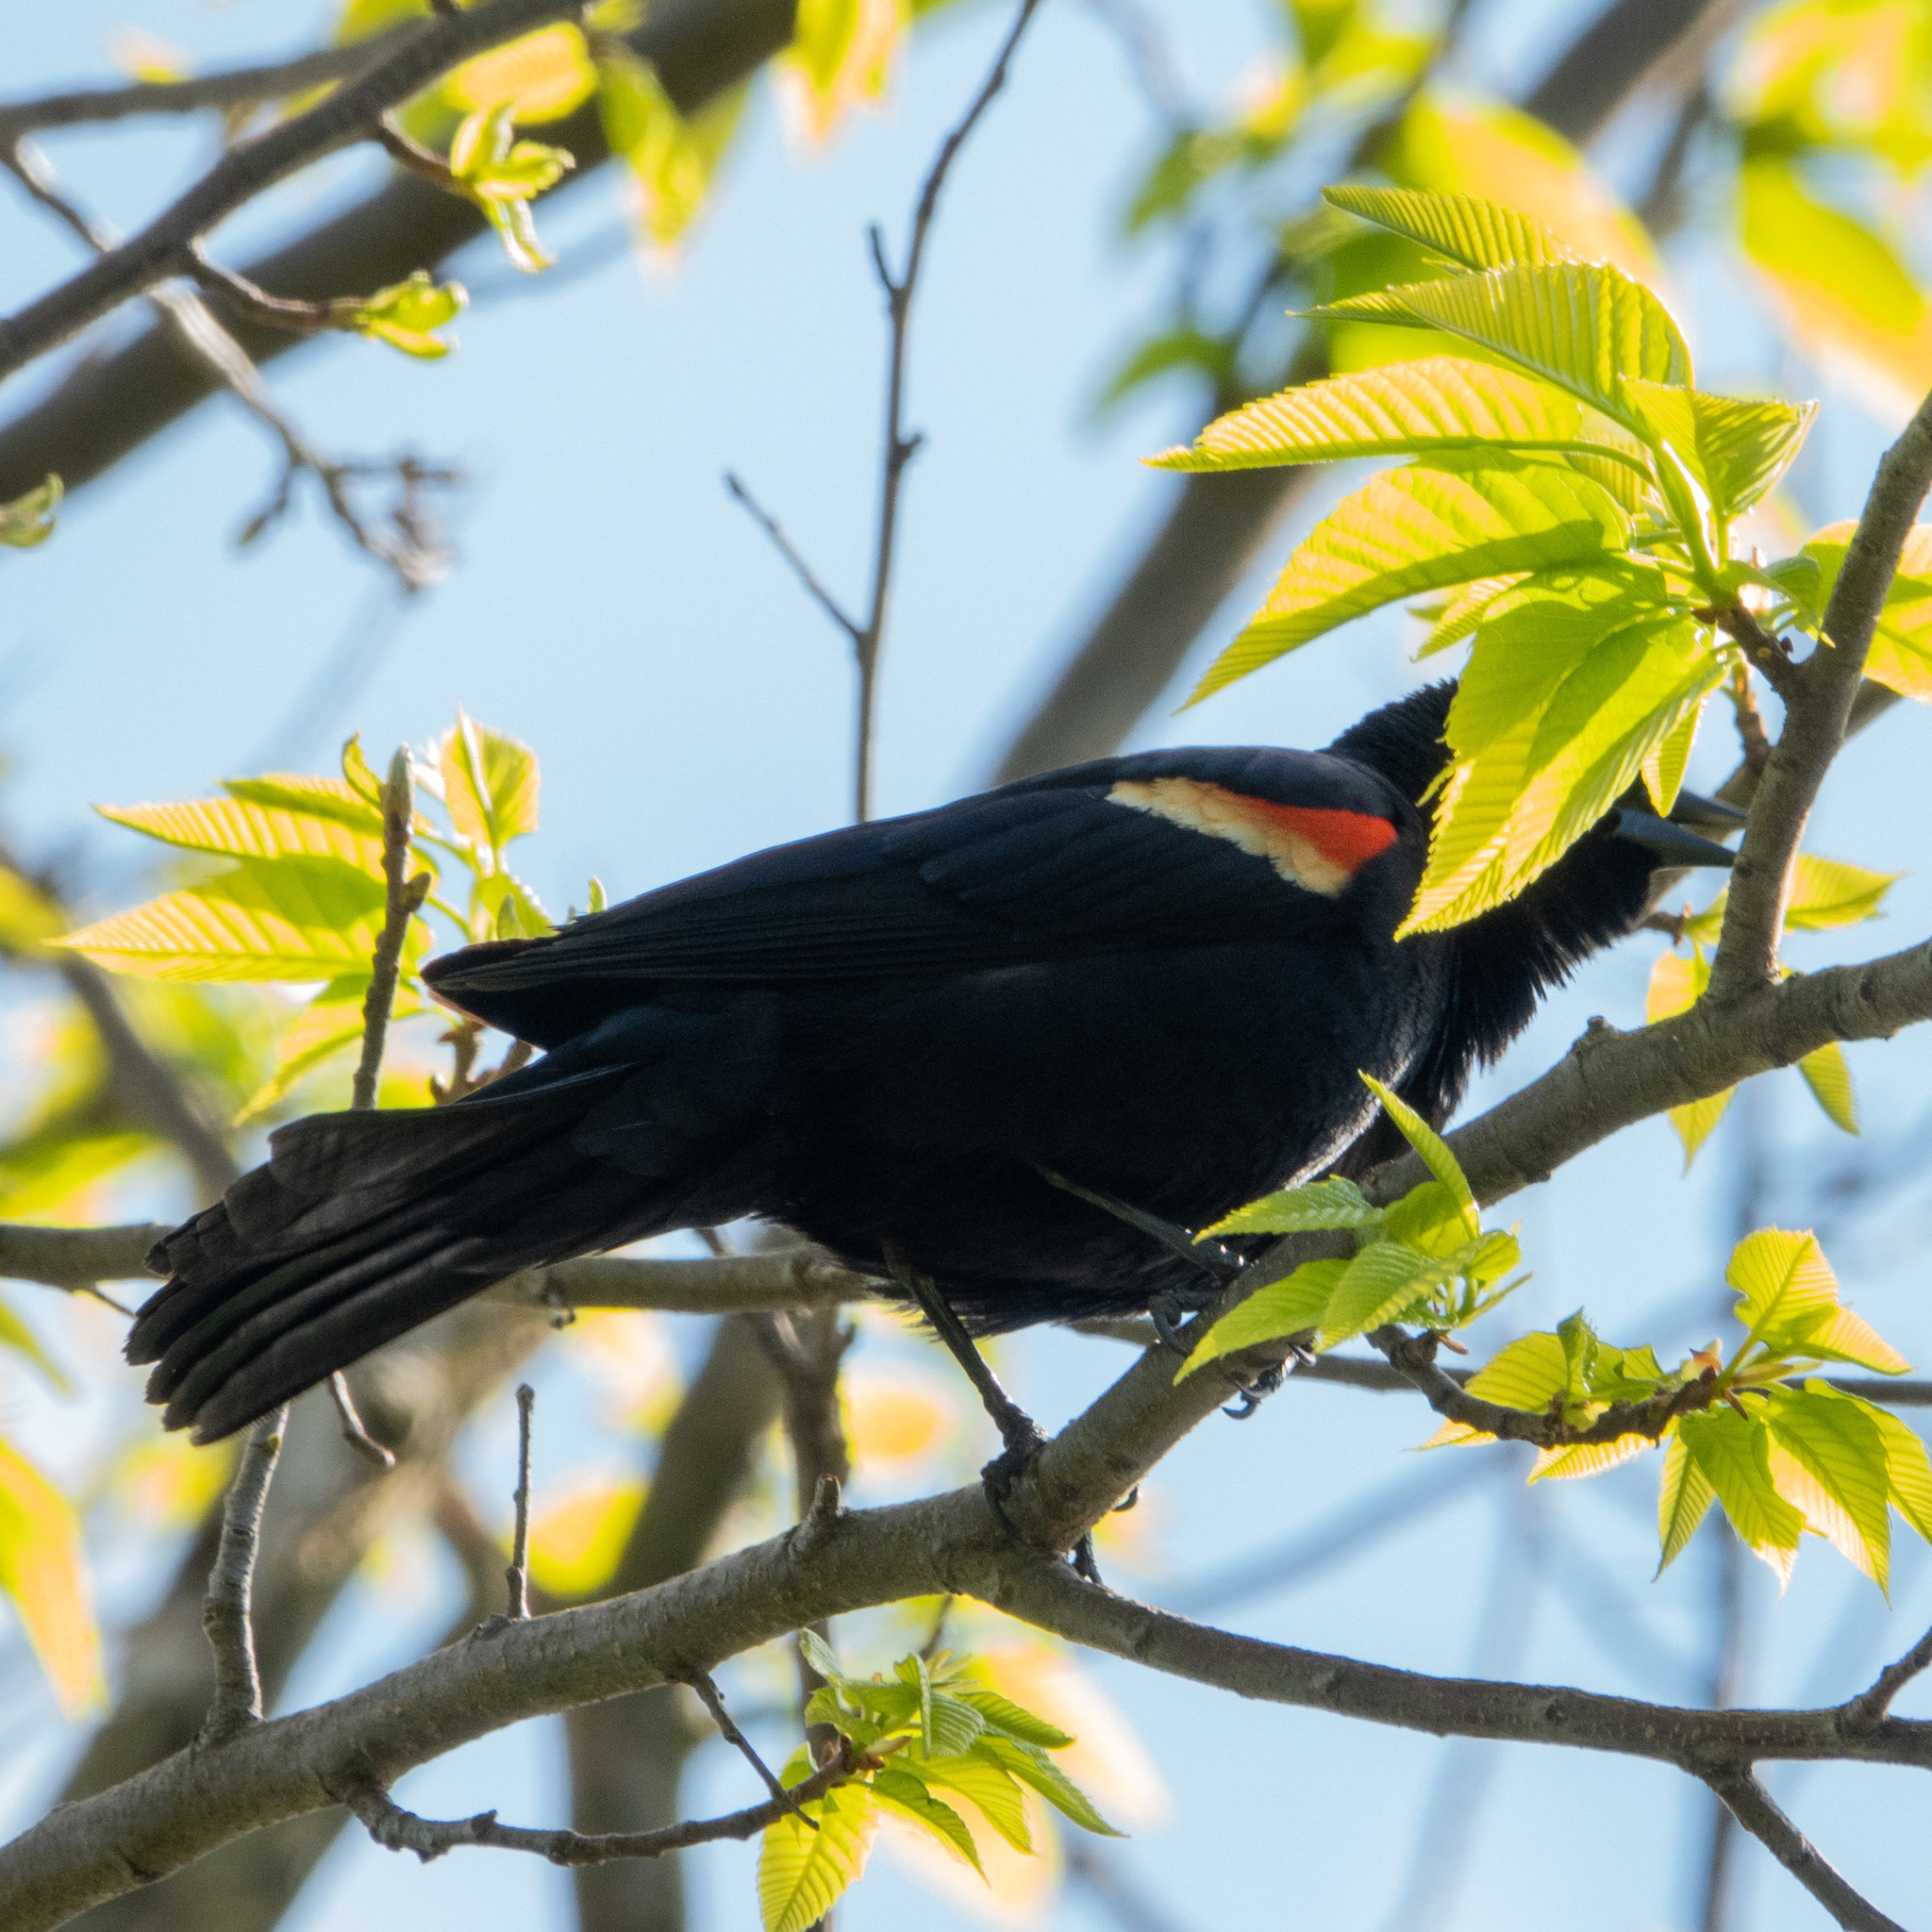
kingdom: Animalia
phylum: Chordata
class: Aves
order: Passeriformes
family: Icteridae
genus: Agelaius
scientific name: Agelaius phoeniceus
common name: Red-winged blackbird
